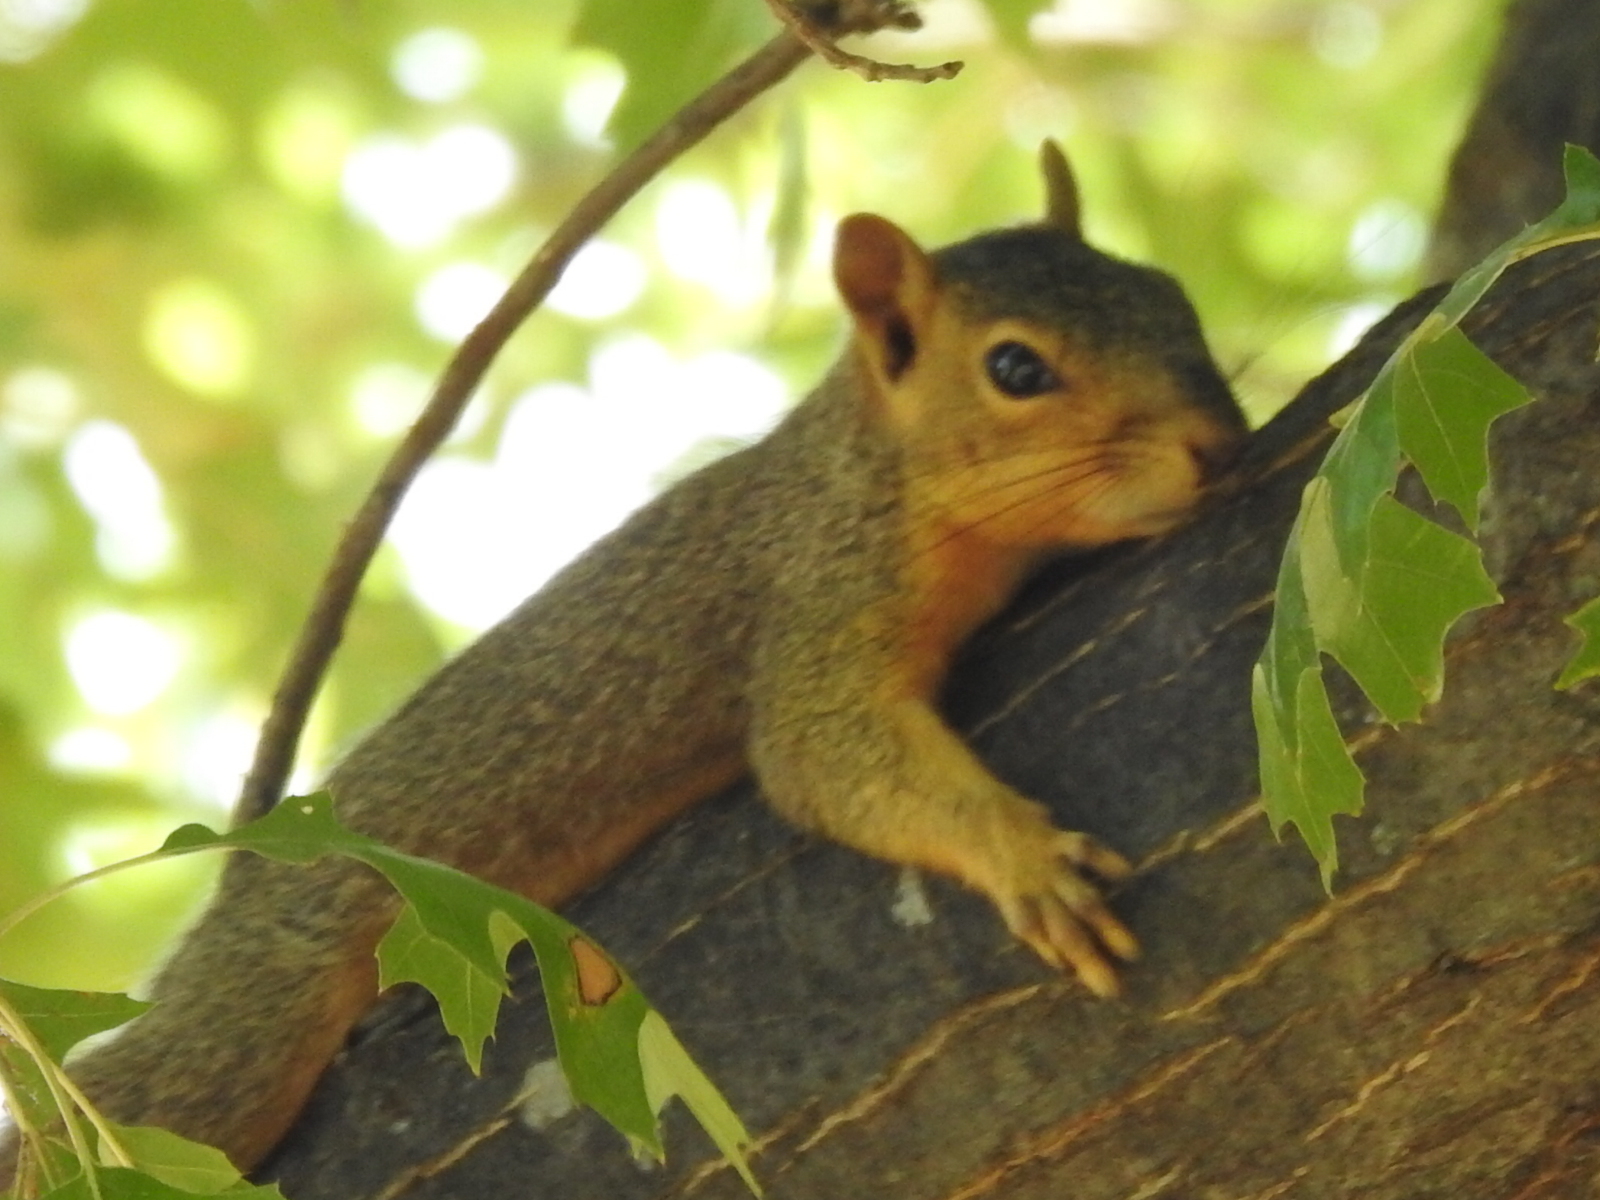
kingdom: Animalia
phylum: Chordata
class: Mammalia
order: Rodentia
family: Sciuridae
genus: Sciurus
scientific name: Sciurus niger
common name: Fox squirrel
